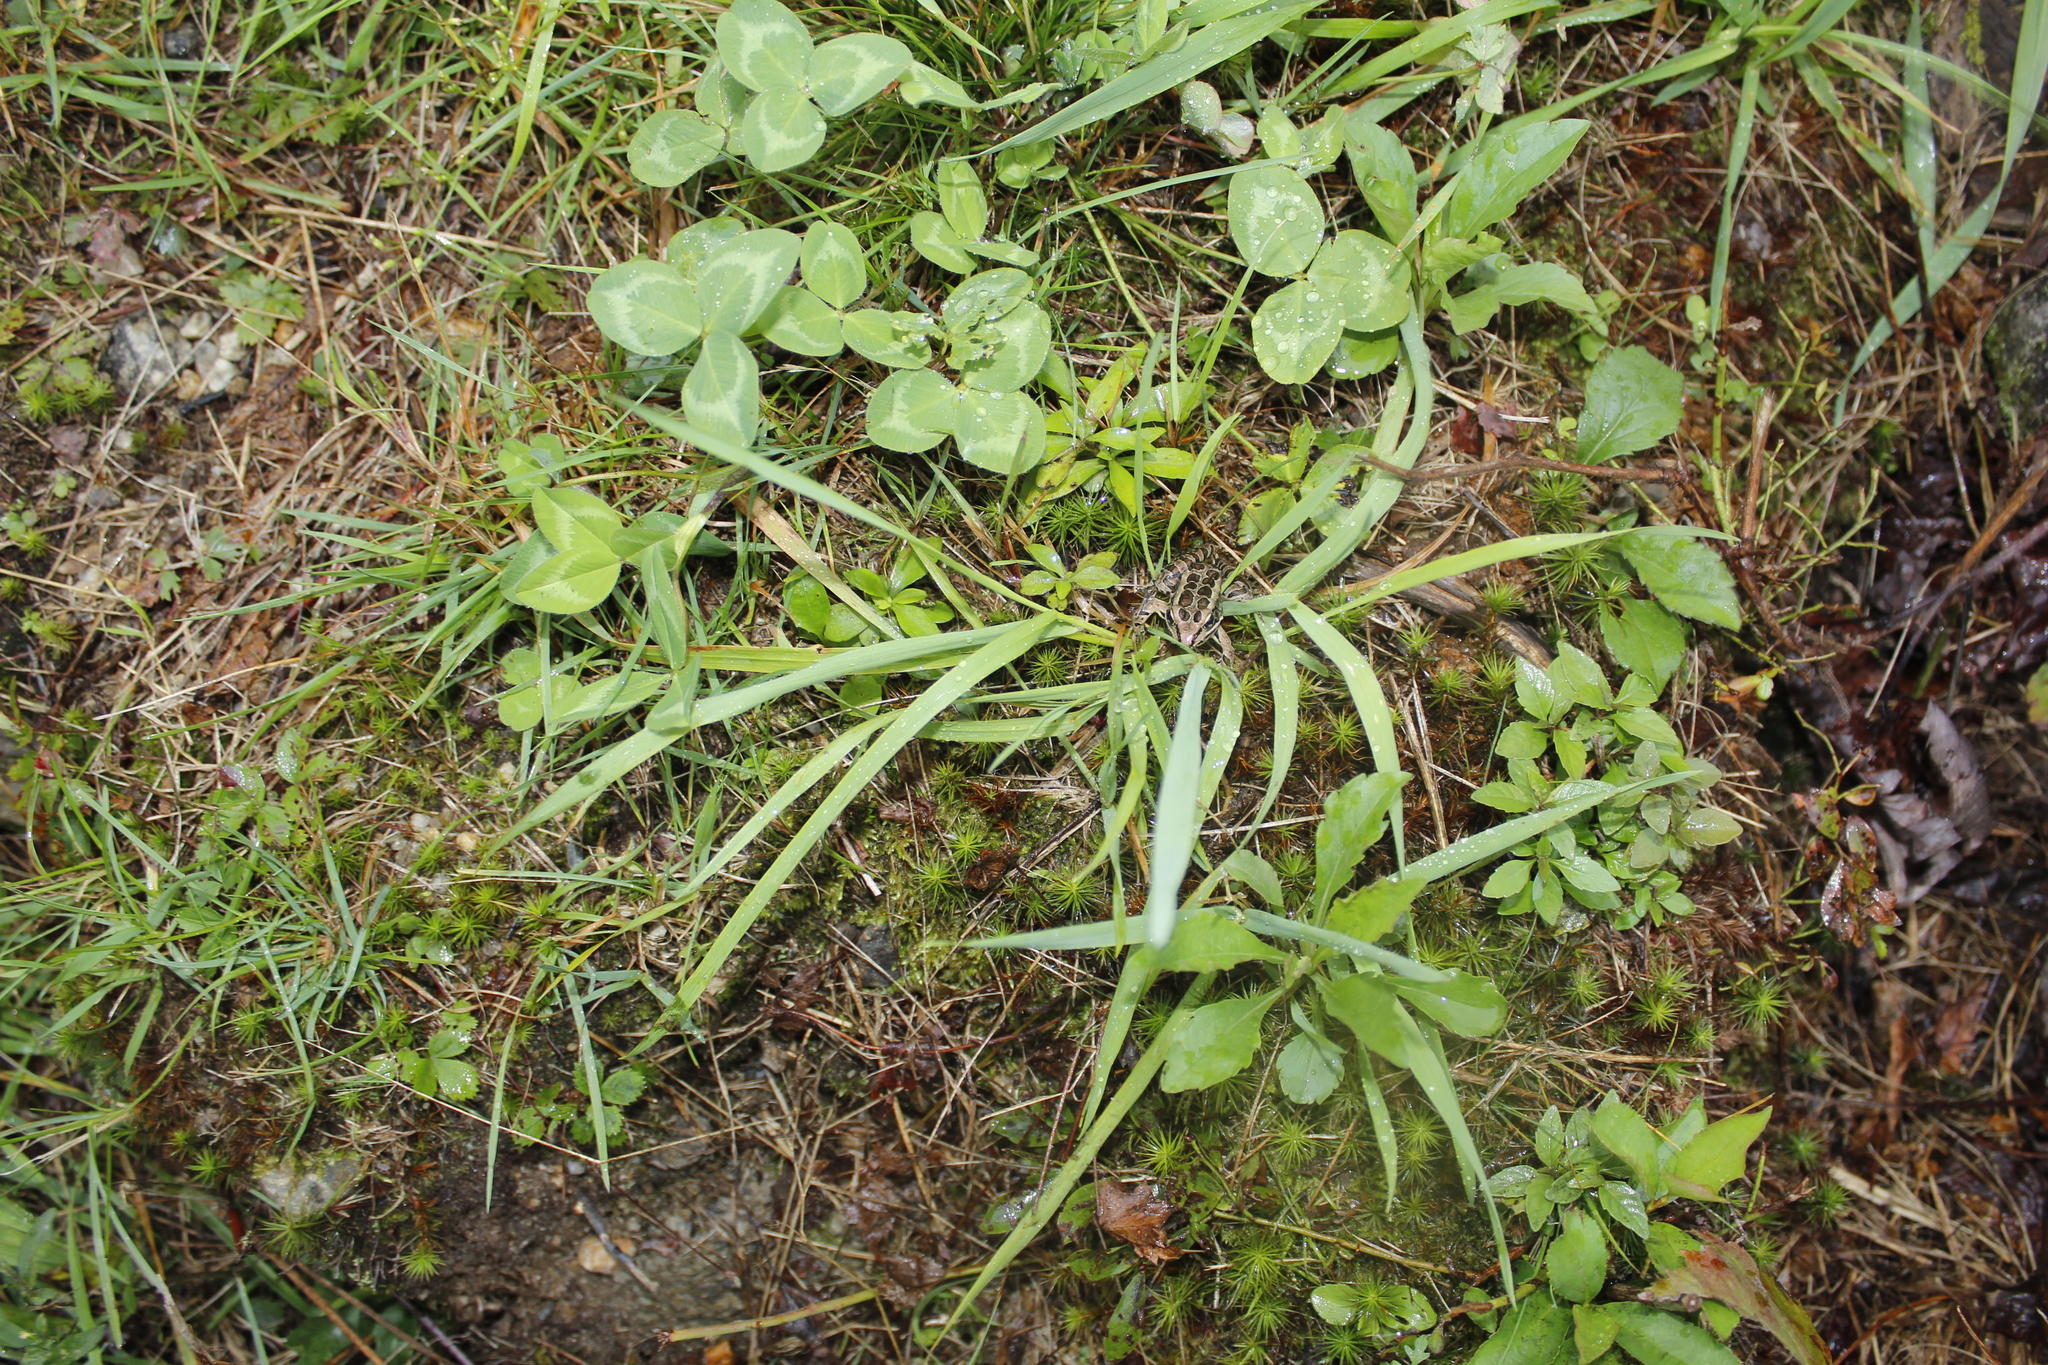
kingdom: Animalia
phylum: Chordata
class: Amphibia
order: Anura
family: Ranidae
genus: Lithobates
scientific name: Lithobates palustris
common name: Pickerel frog
